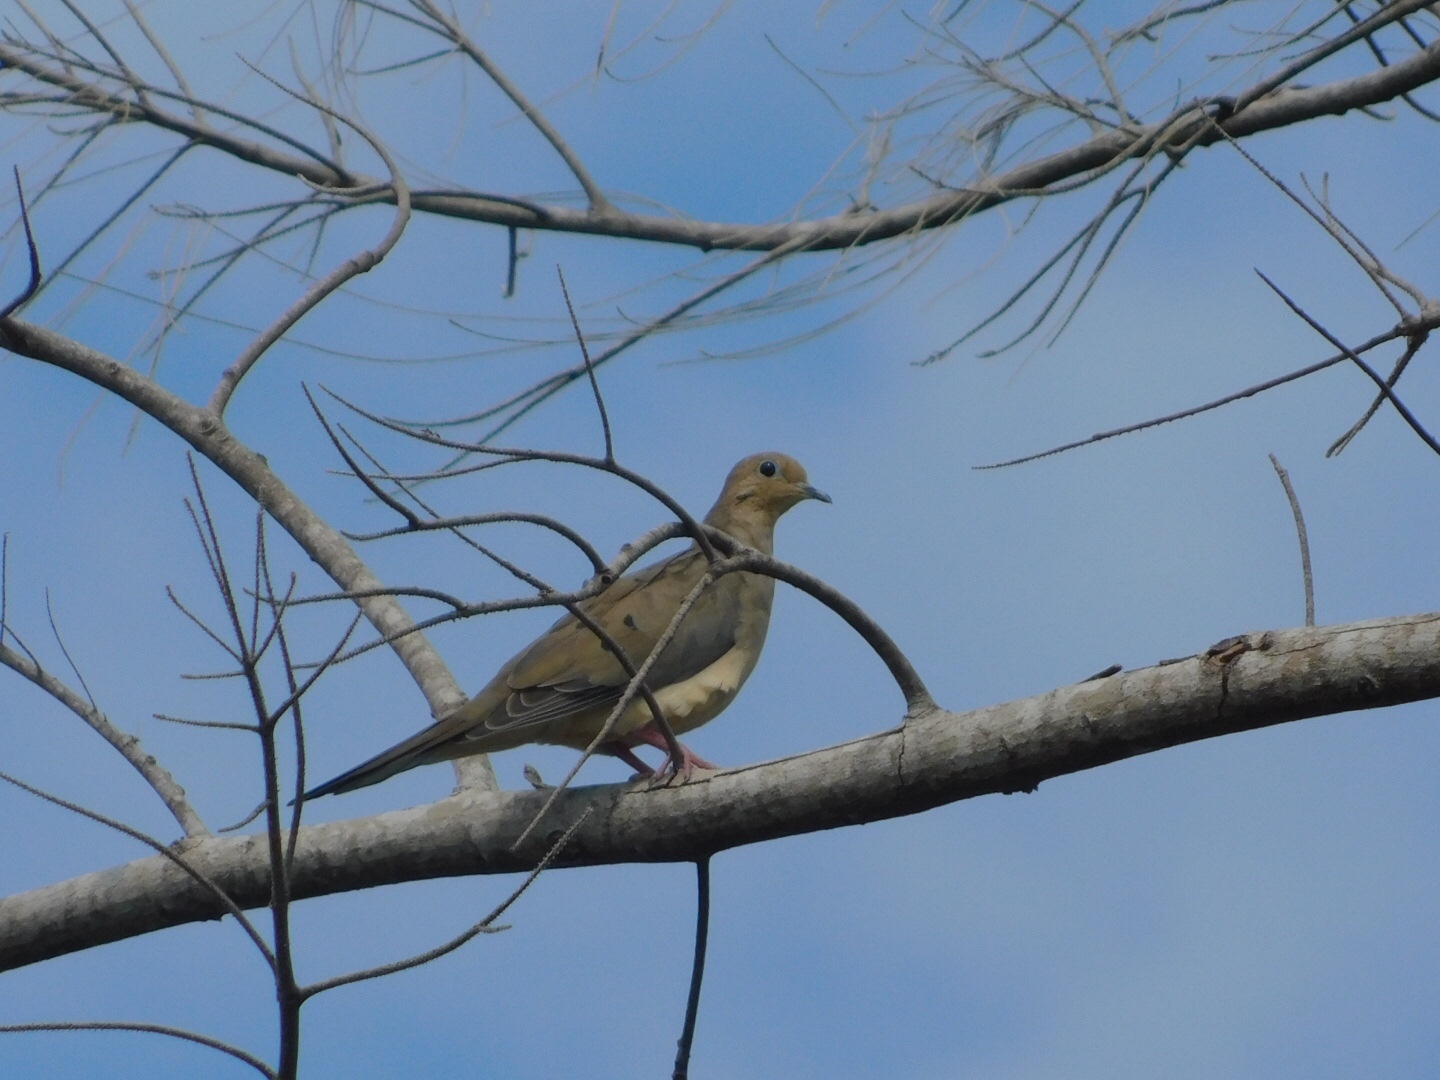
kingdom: Animalia
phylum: Chordata
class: Aves
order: Columbiformes
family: Columbidae
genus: Zenaida
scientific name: Zenaida macroura
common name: Mourning dove
